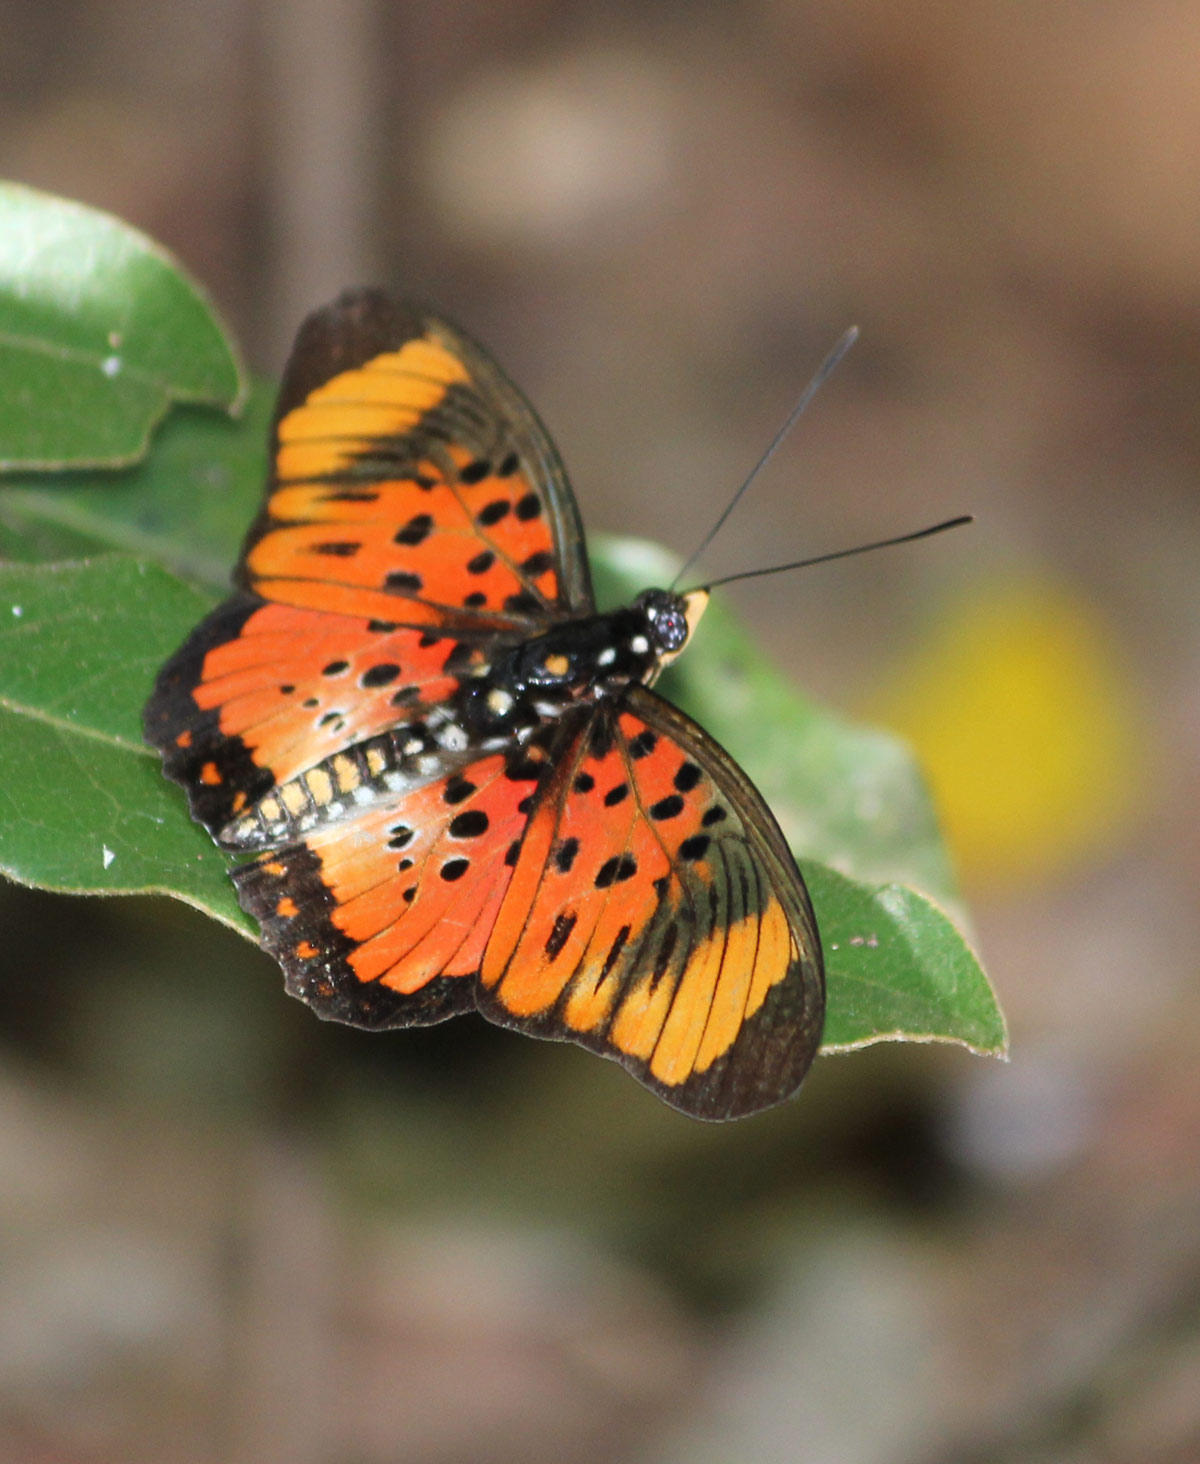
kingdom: Animalia
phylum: Arthropoda
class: Insecta
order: Lepidoptera
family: Nymphalidae
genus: Chloropoea
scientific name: Chloropoea boisduvalii
